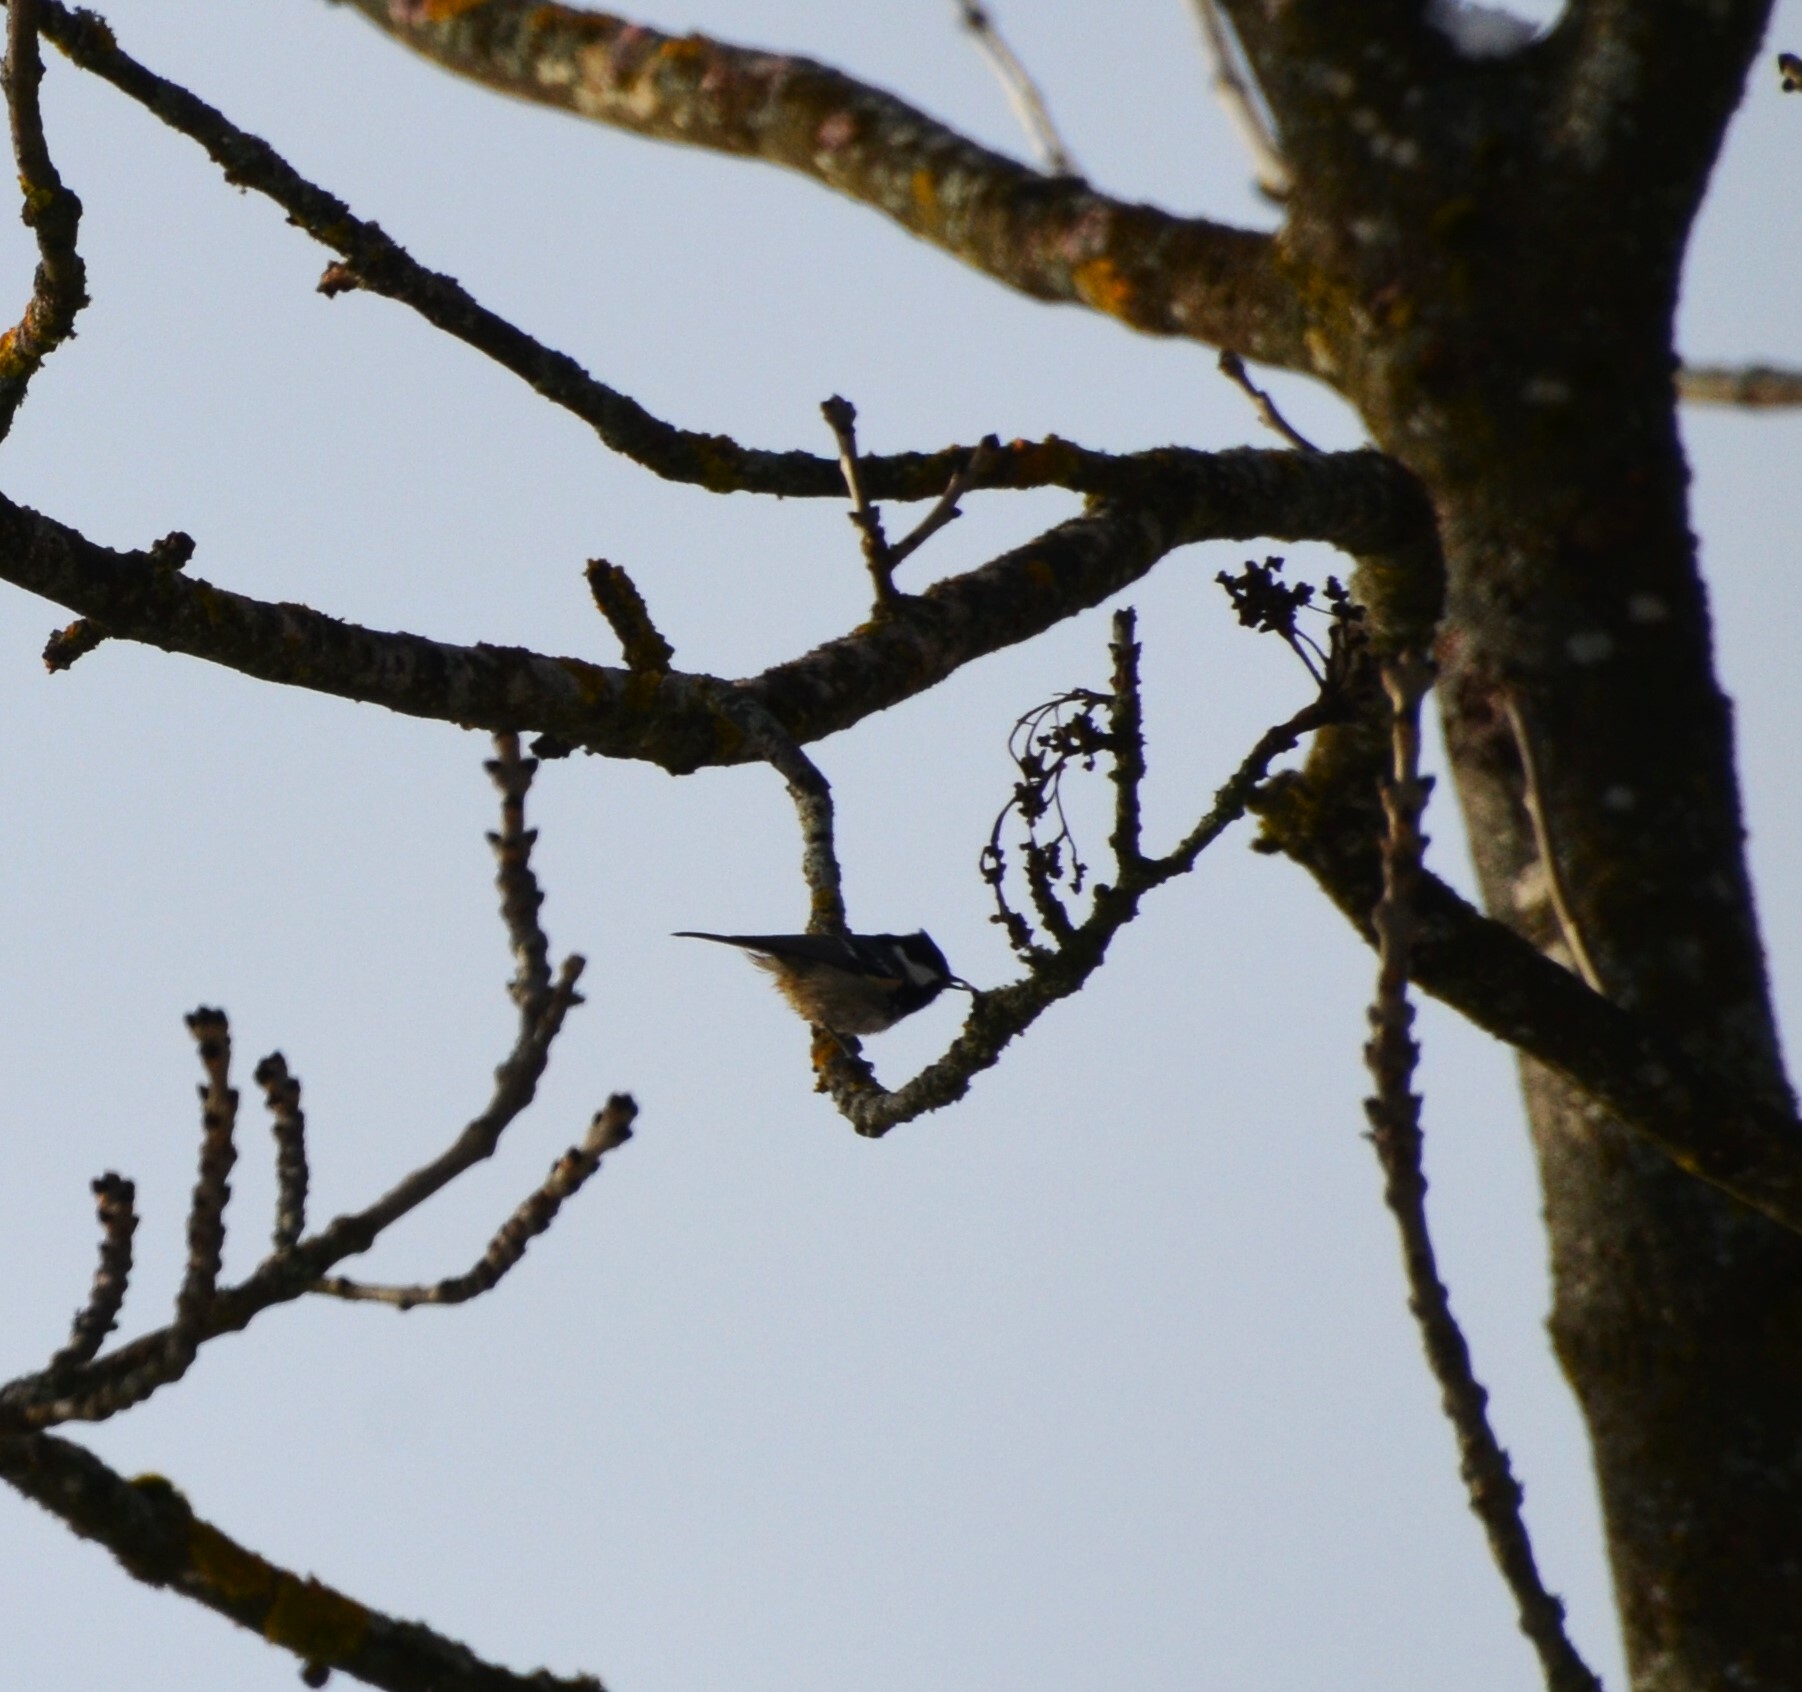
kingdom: Animalia
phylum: Chordata
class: Aves
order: Passeriformes
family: Paridae
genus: Periparus
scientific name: Periparus ater
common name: Coal tit
